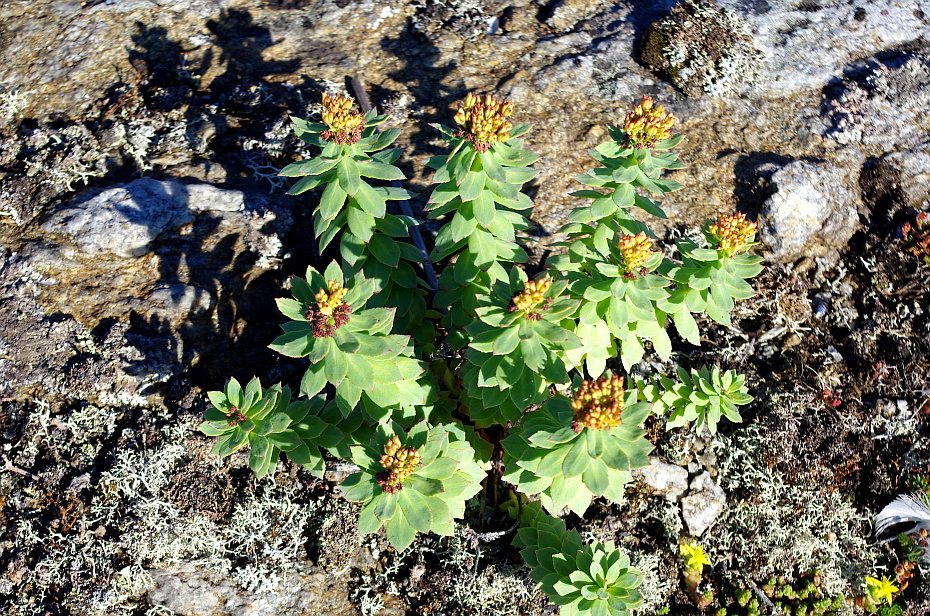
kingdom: Plantae
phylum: Tracheophyta
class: Magnoliopsida
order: Saxifragales
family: Crassulaceae
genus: Rhodiola
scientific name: Rhodiola rosea
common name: Roseroot
